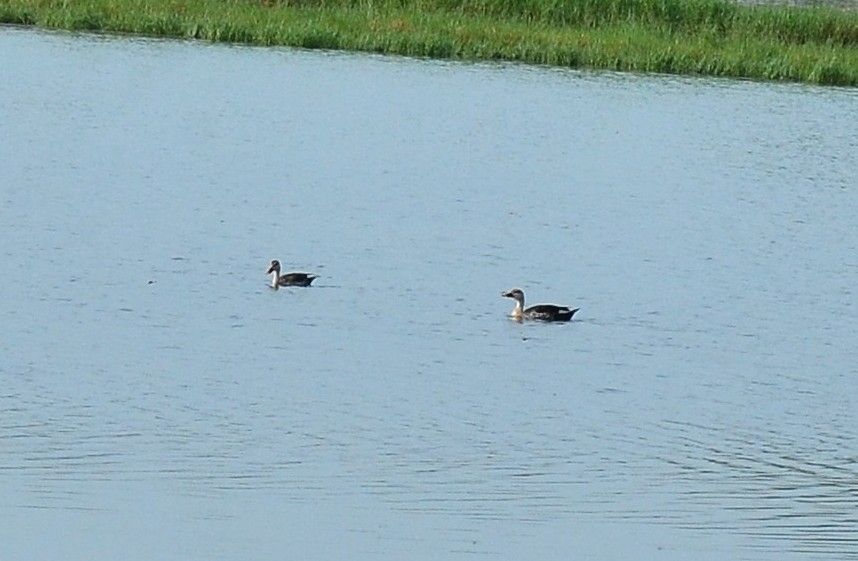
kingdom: Animalia
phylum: Chordata
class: Aves
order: Anseriformes
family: Anatidae
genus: Anas
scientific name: Anas poecilorhyncha
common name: Indian spot-billed duck
